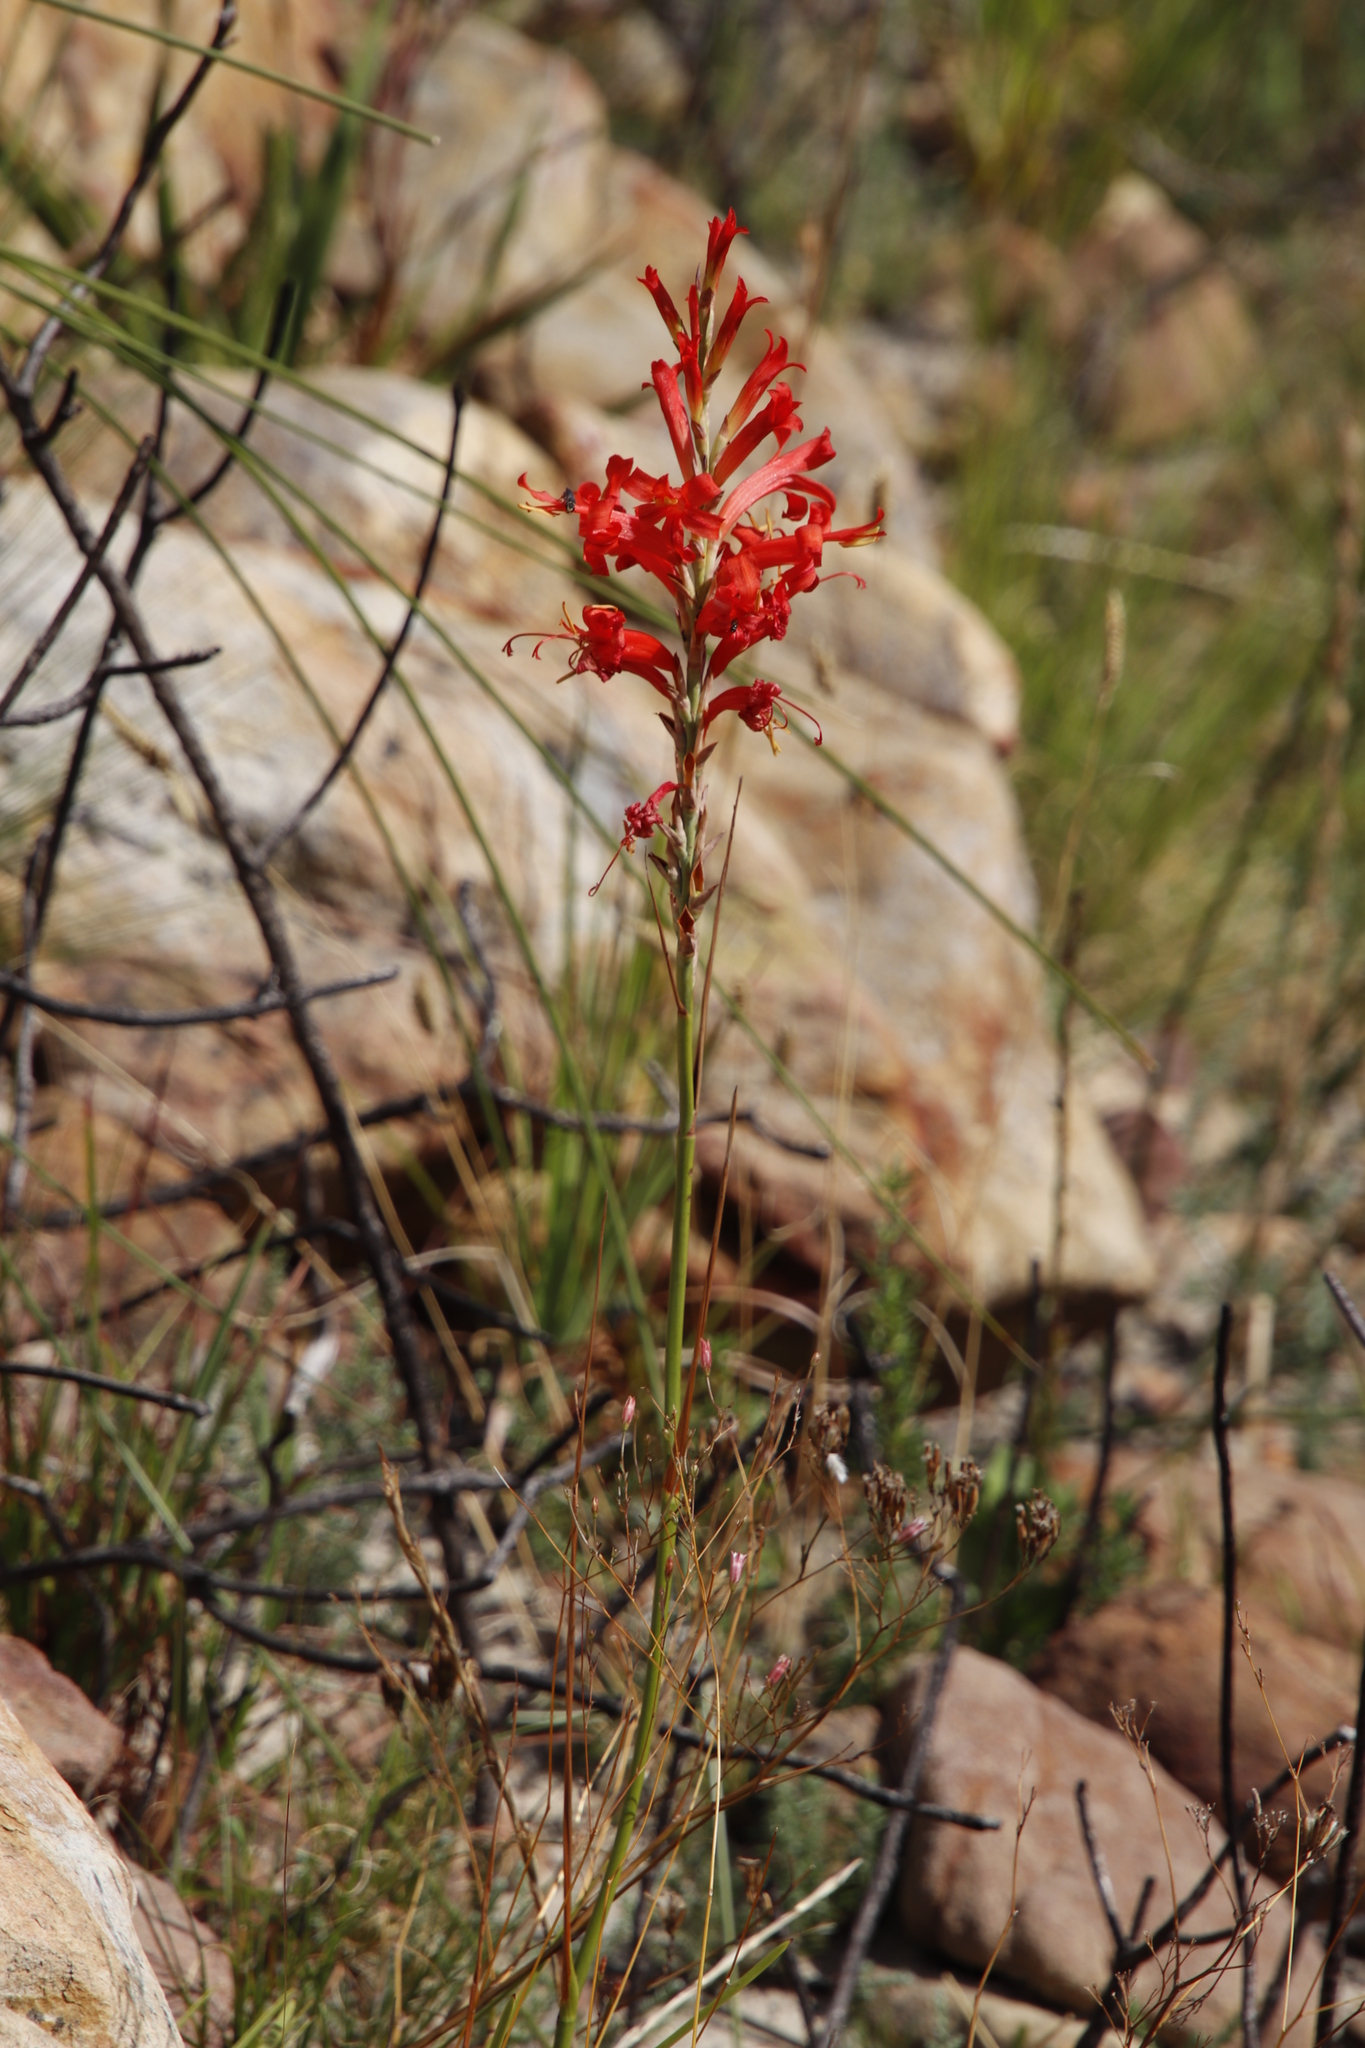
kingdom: Plantae
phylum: Tracheophyta
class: Liliopsida
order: Asparagales
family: Iridaceae
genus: Tritoniopsis
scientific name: Tritoniopsis triticea
